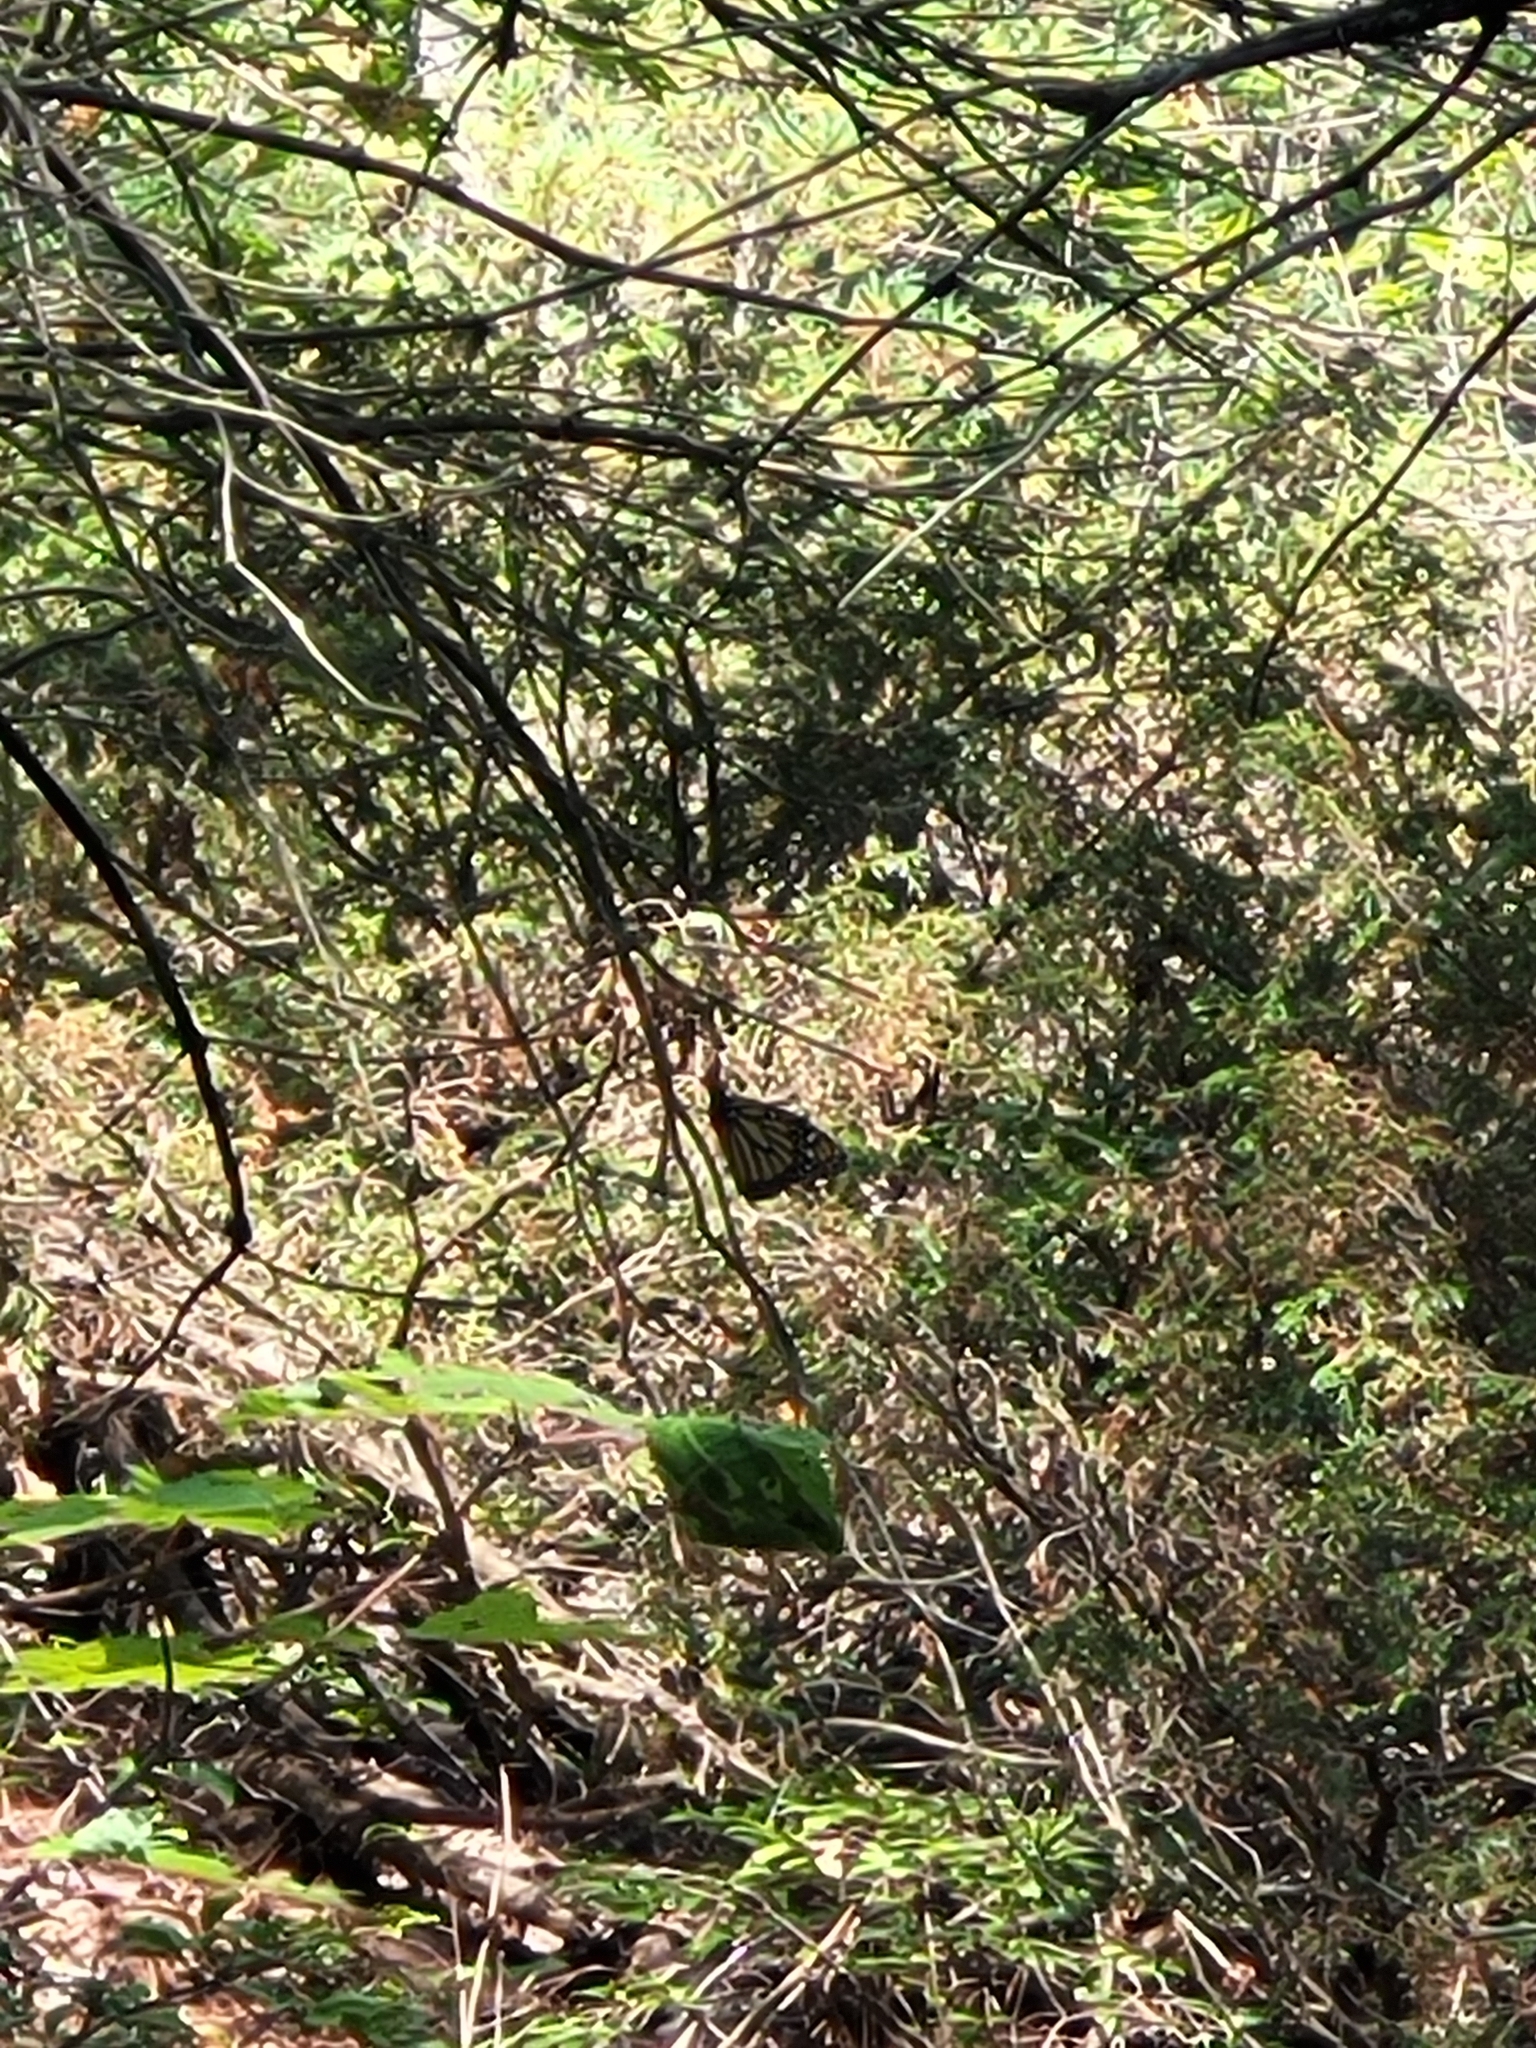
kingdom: Animalia
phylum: Arthropoda
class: Insecta
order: Lepidoptera
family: Nymphalidae
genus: Danaus
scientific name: Danaus plexippus
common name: Monarch
